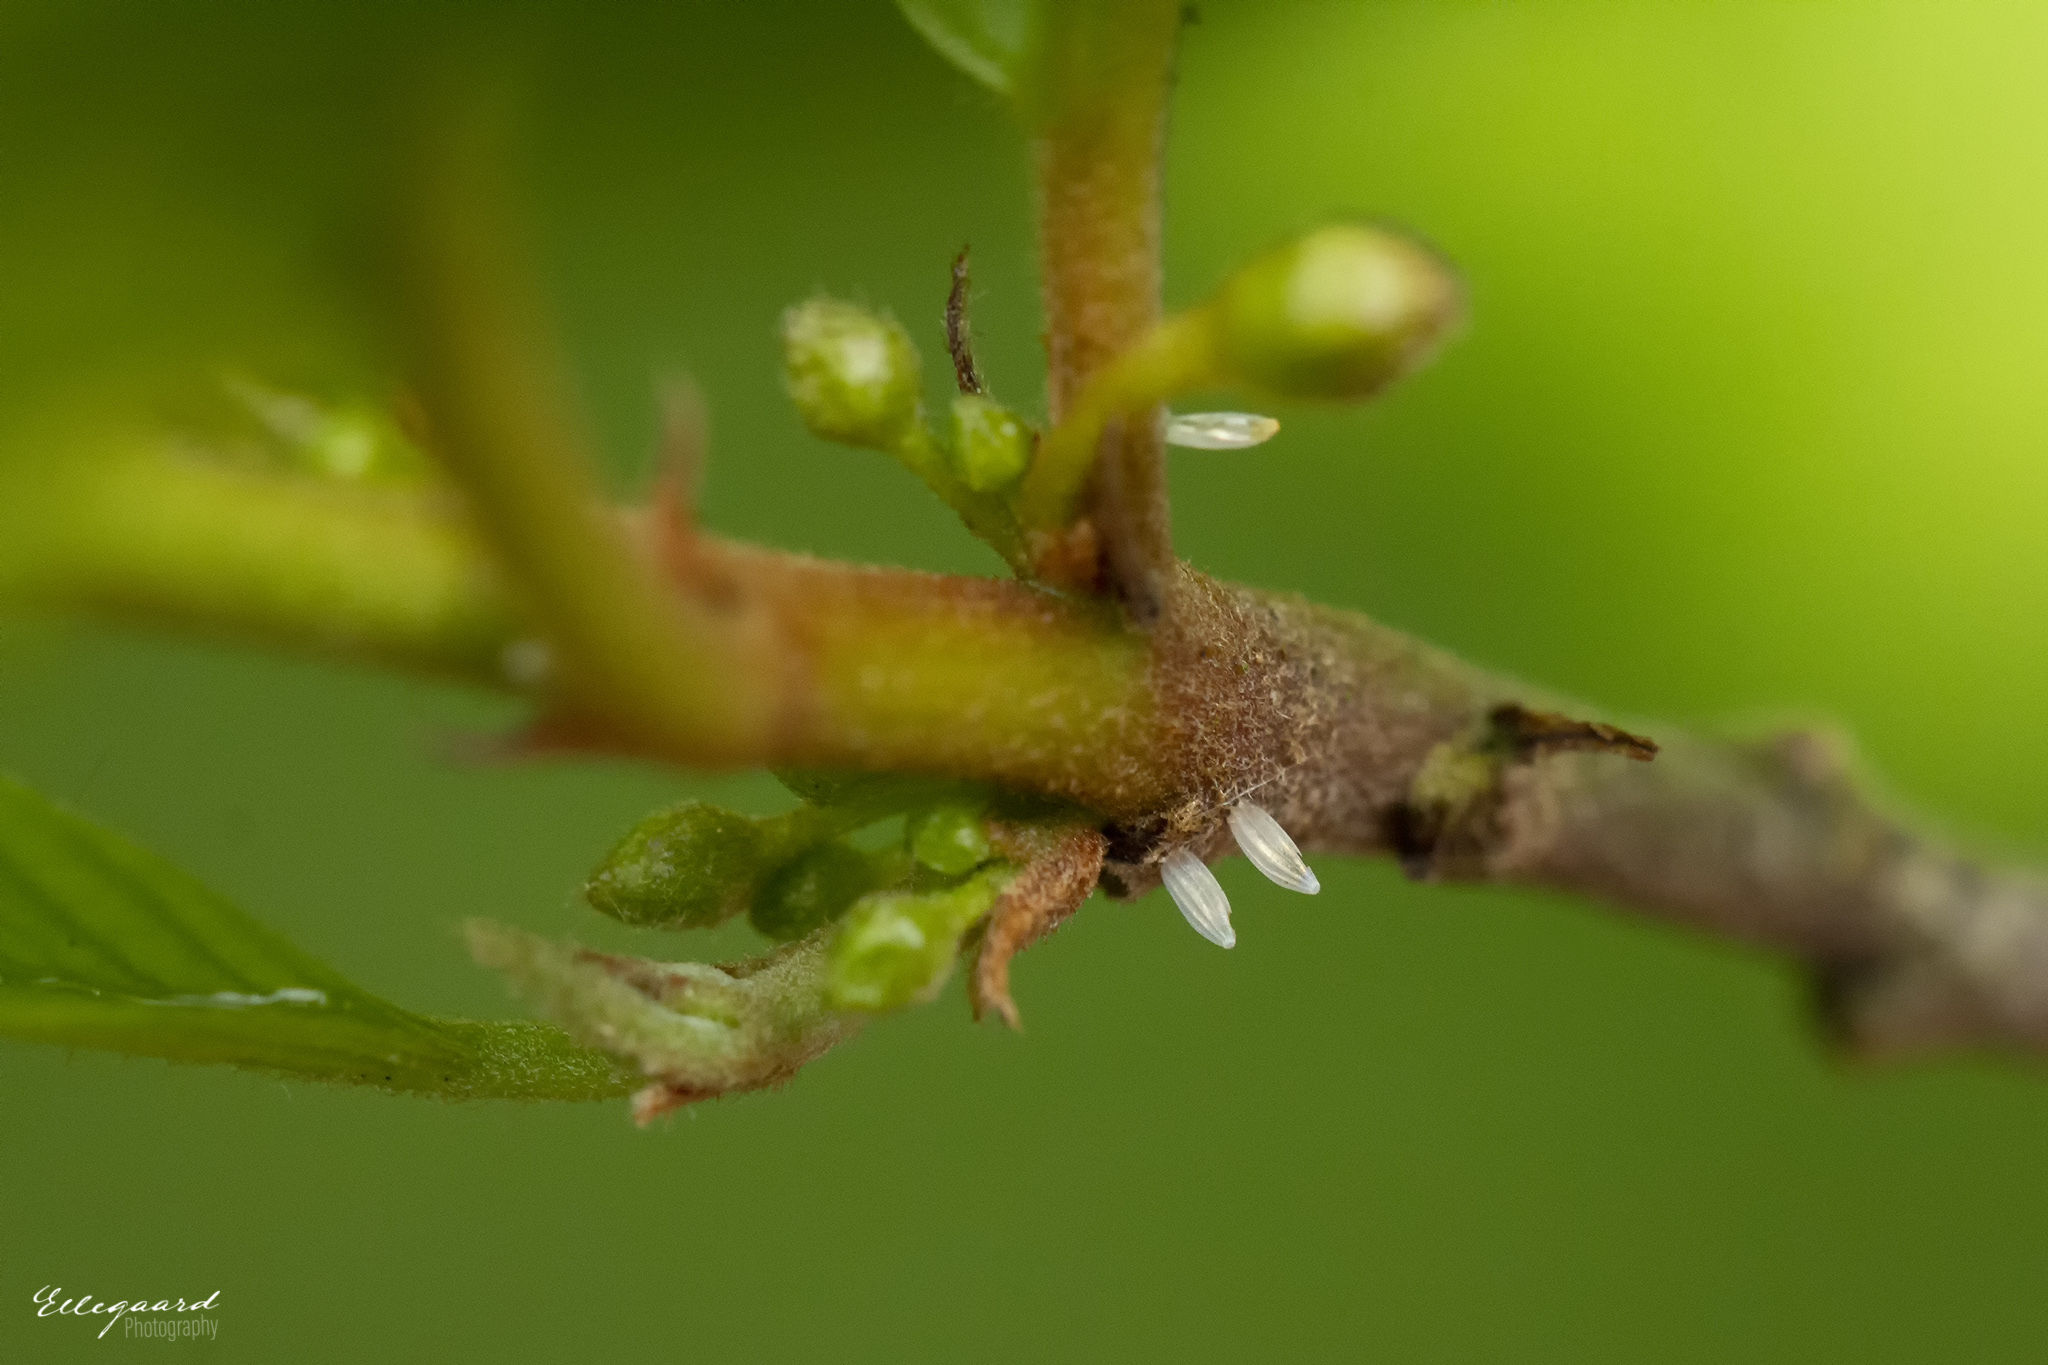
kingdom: Animalia
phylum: Arthropoda
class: Insecta
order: Lepidoptera
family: Pieridae
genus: Gonepteryx
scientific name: Gonepteryx rhamni
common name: Brimstone
